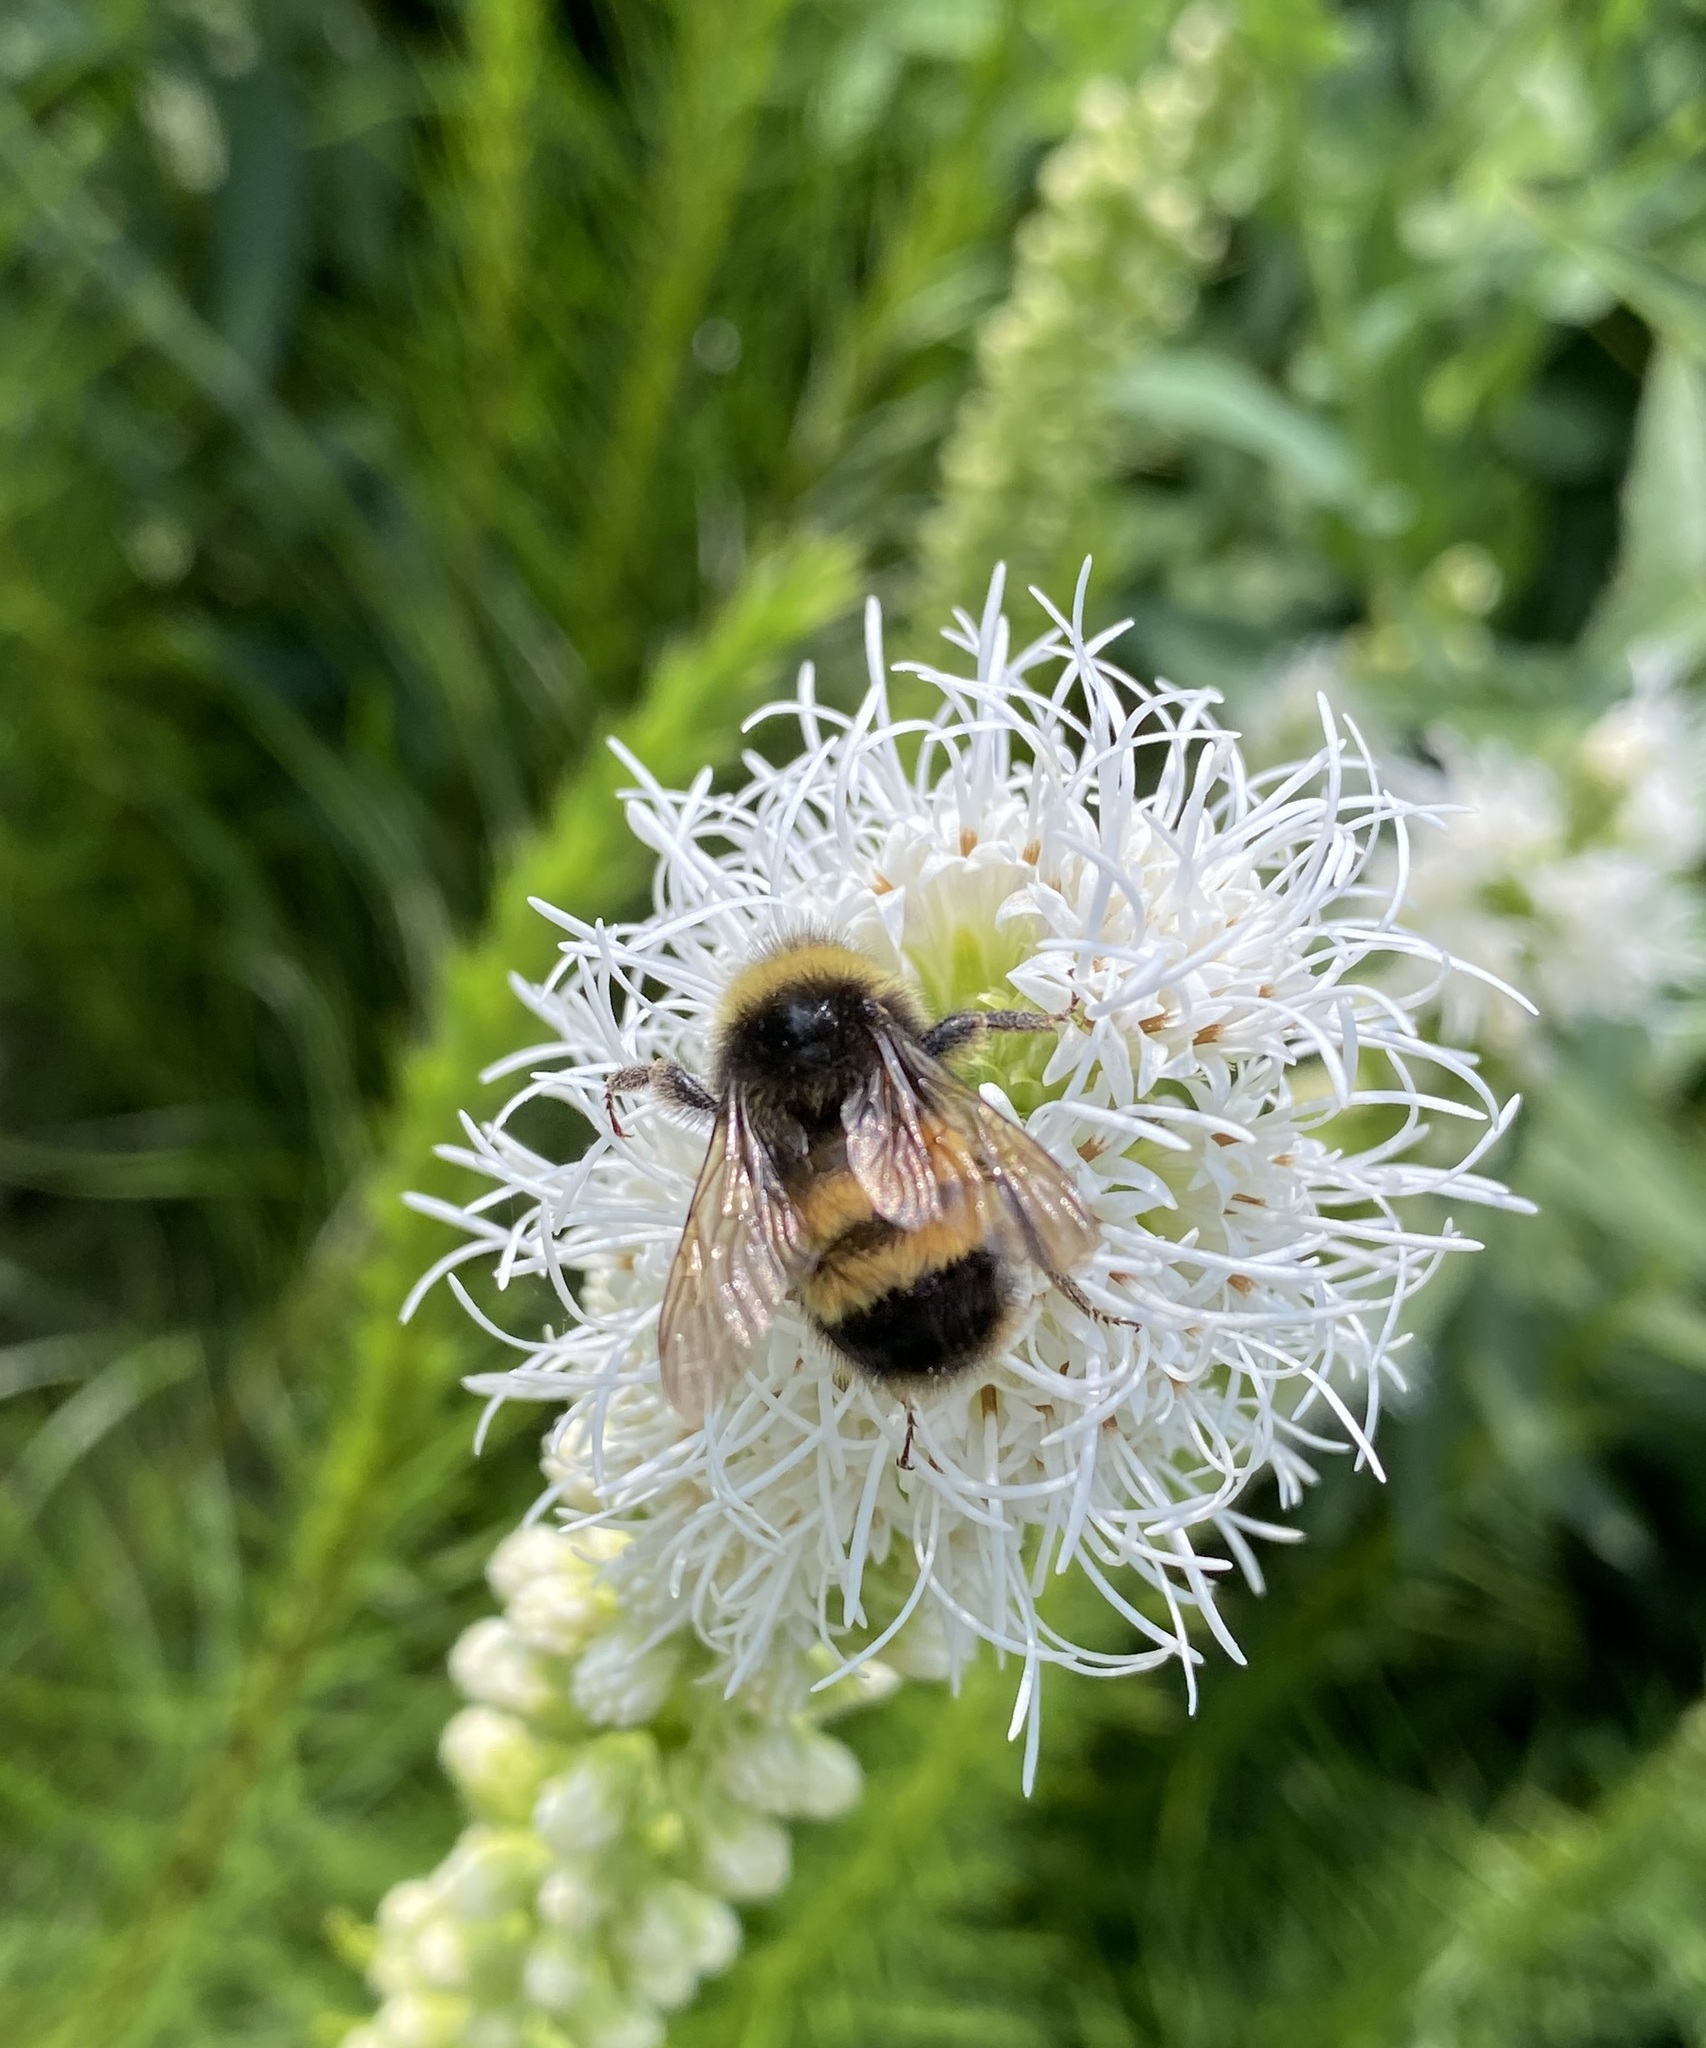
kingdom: Animalia
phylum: Arthropoda
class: Insecta
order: Hymenoptera
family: Apidae
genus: Bombus
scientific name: Bombus terricola
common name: Yellow-banded bumble bee
